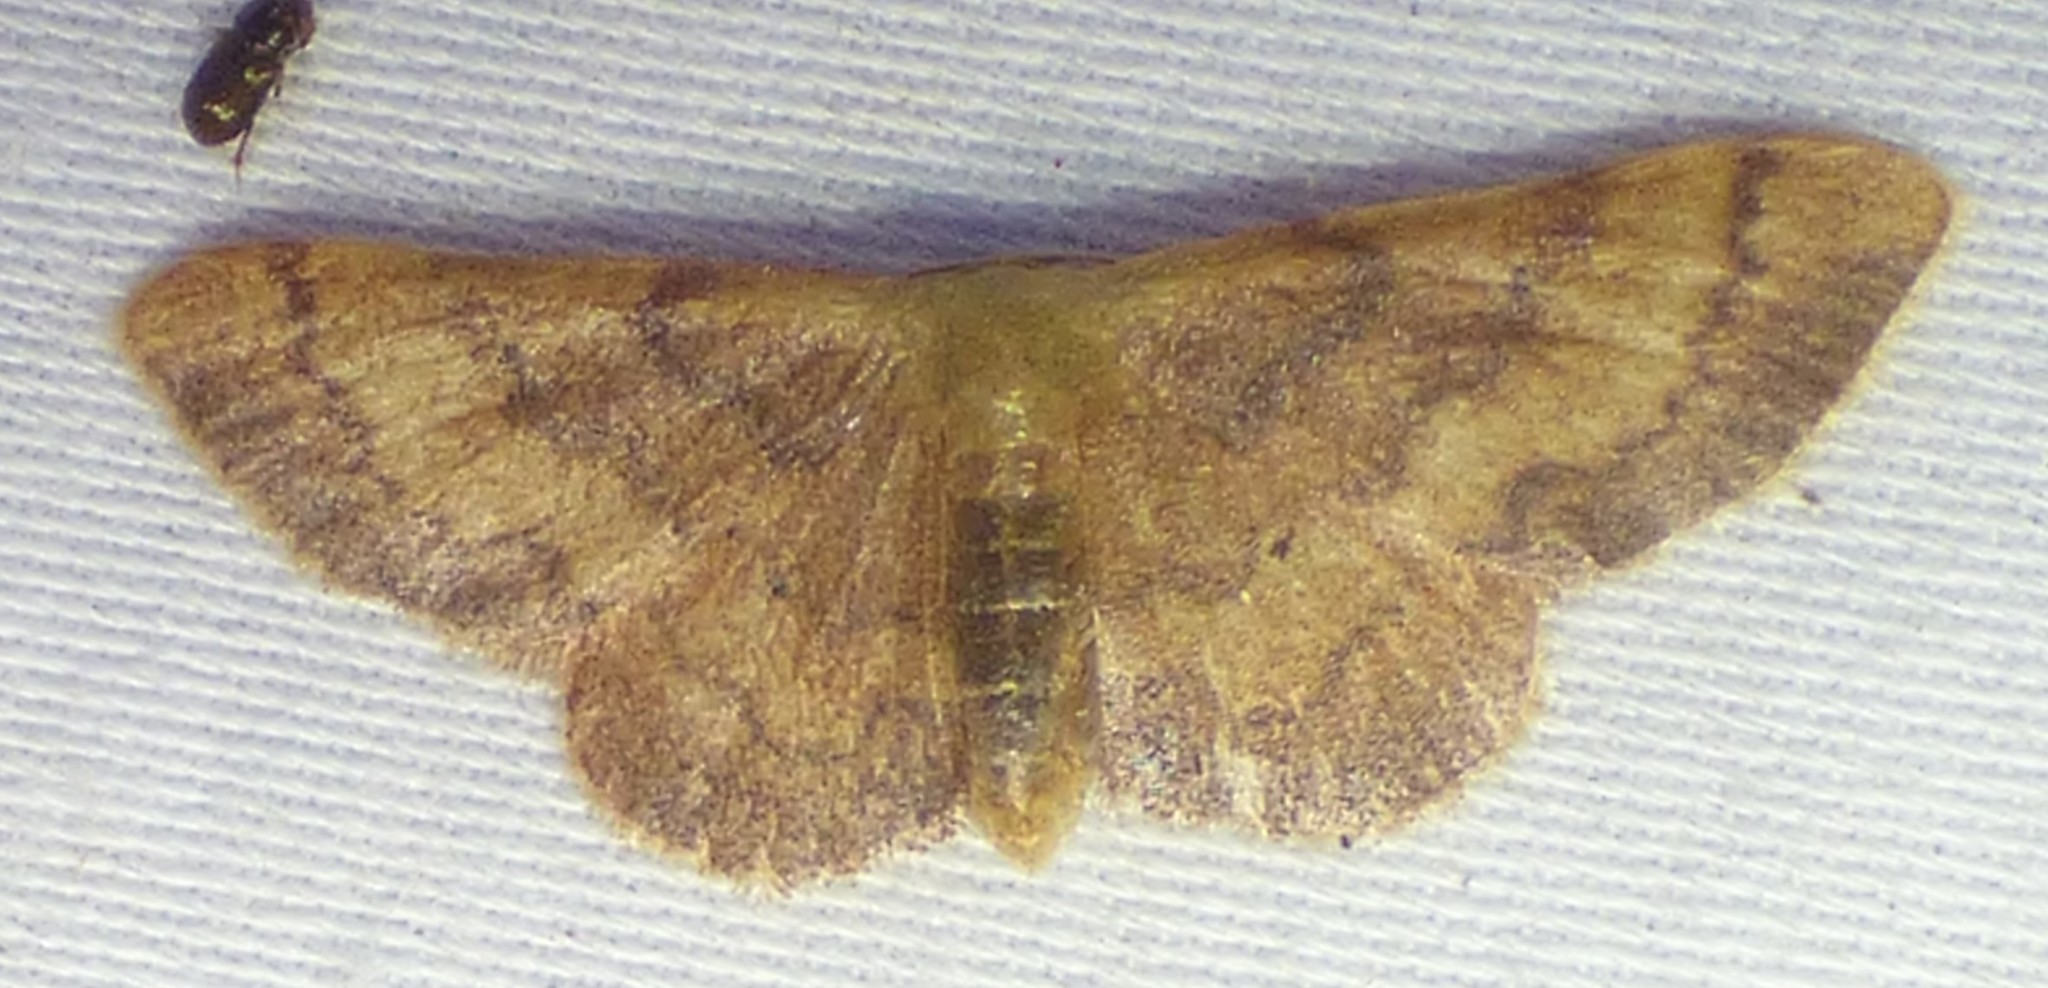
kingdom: Animalia
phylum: Arthropoda
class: Insecta
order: Lepidoptera
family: Geometridae
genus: Idaea
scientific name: Idaea demissaria
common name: Red-bordered wave
